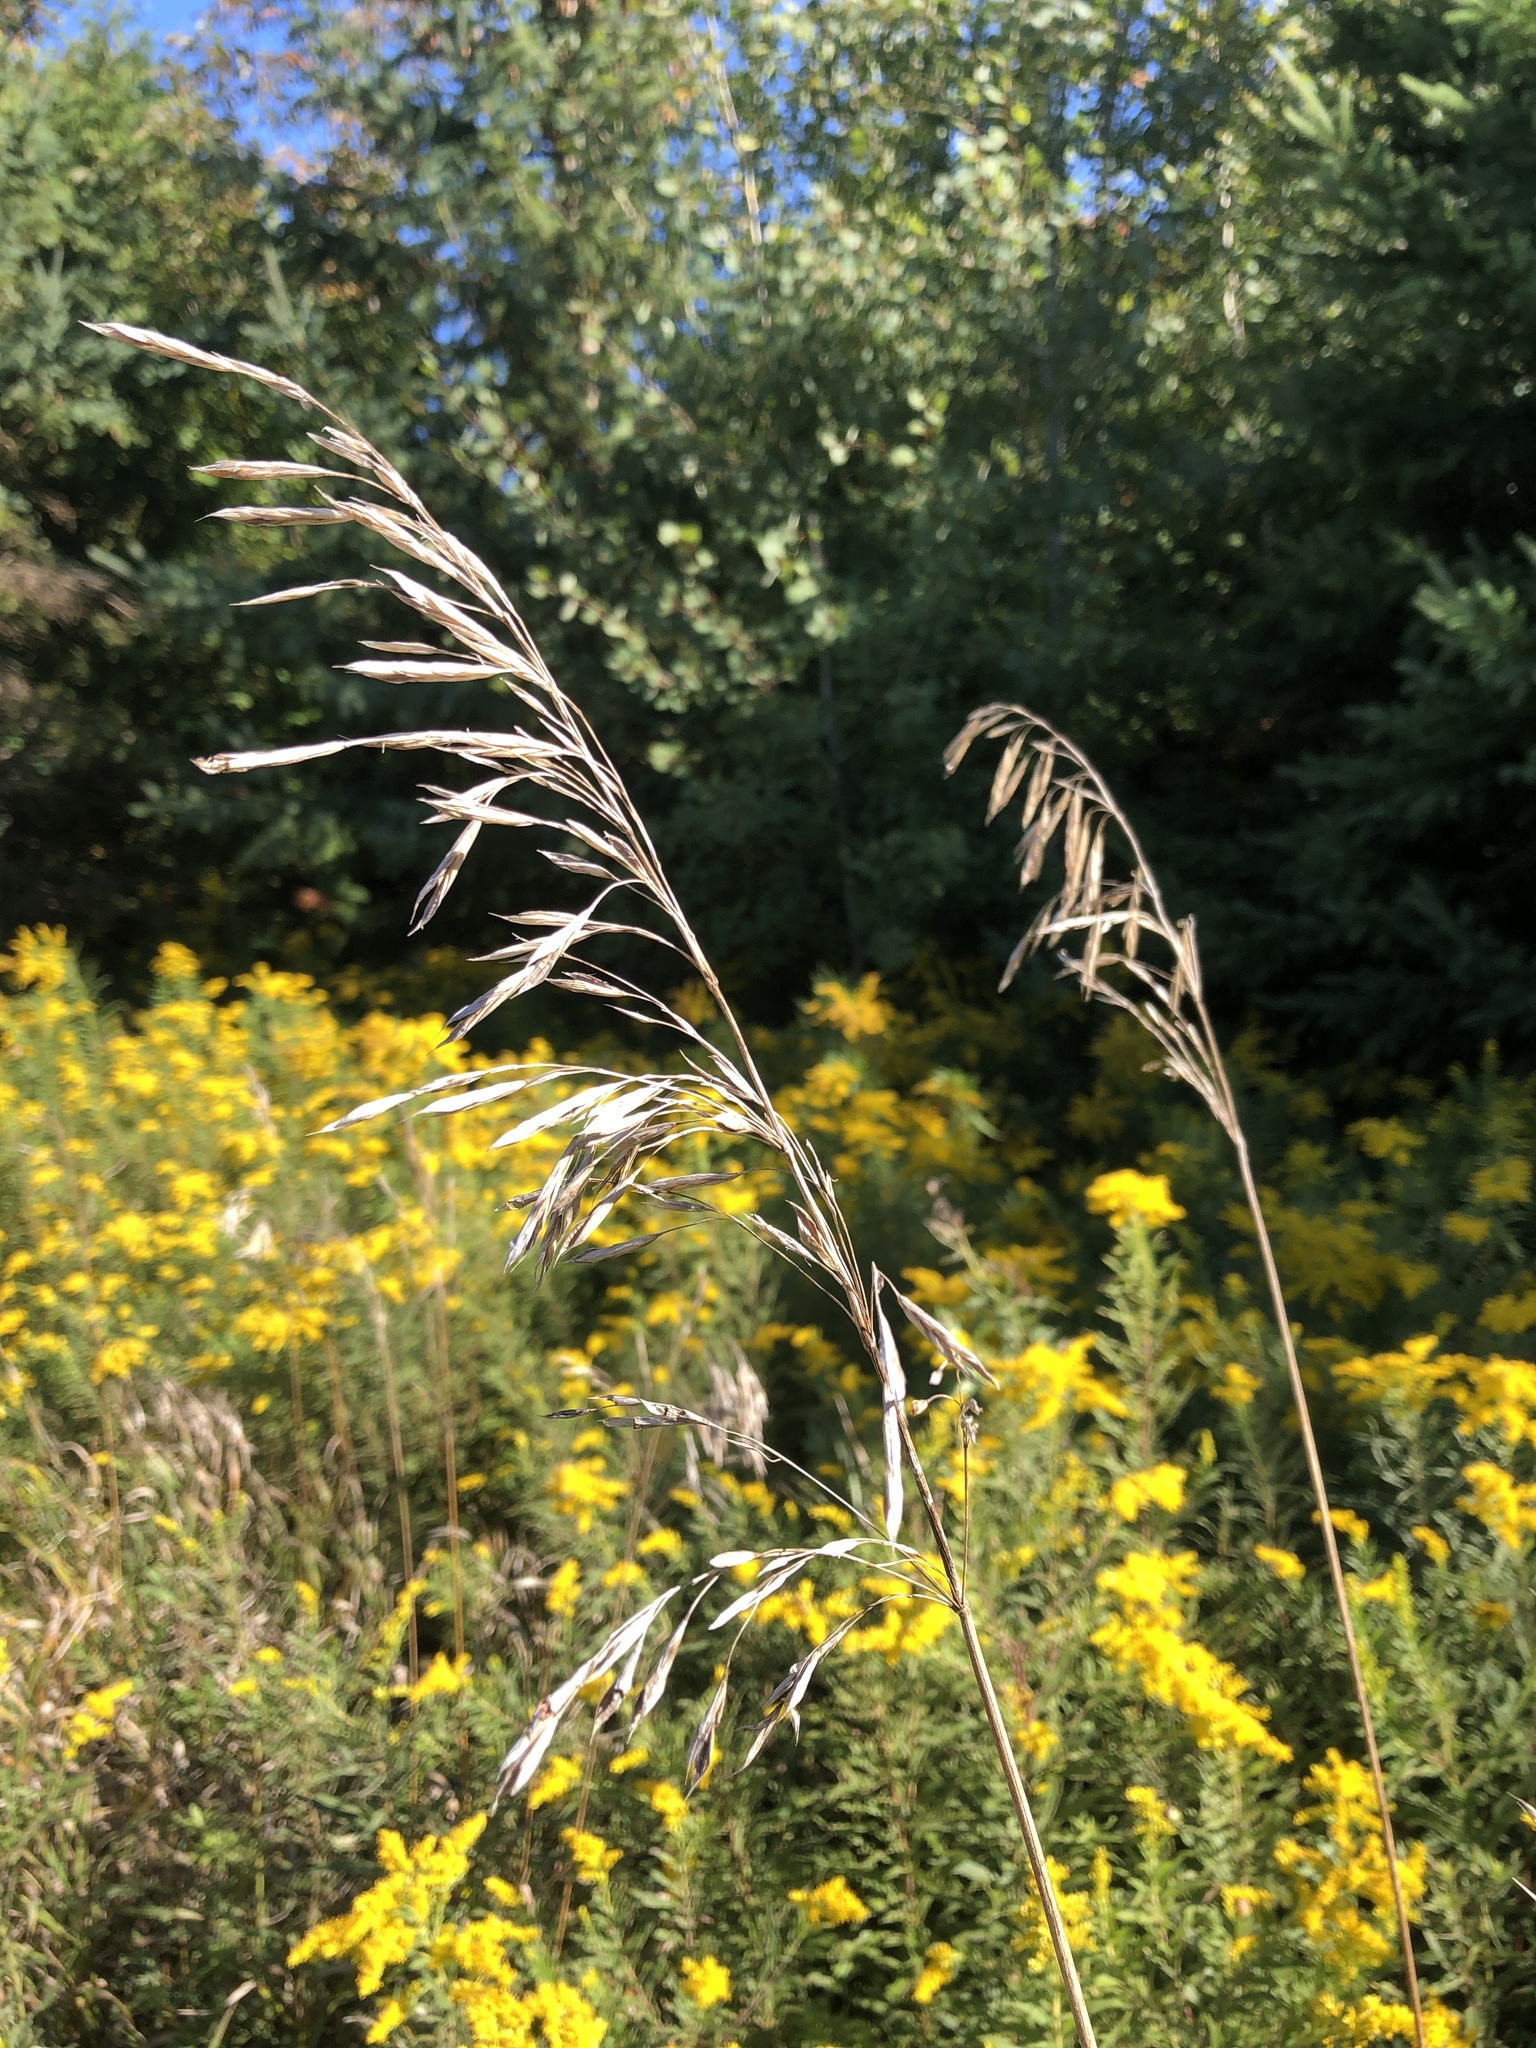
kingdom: Plantae
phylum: Tracheophyta
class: Liliopsida
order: Poales
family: Poaceae
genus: Bromus
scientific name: Bromus inermis
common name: Smooth brome
